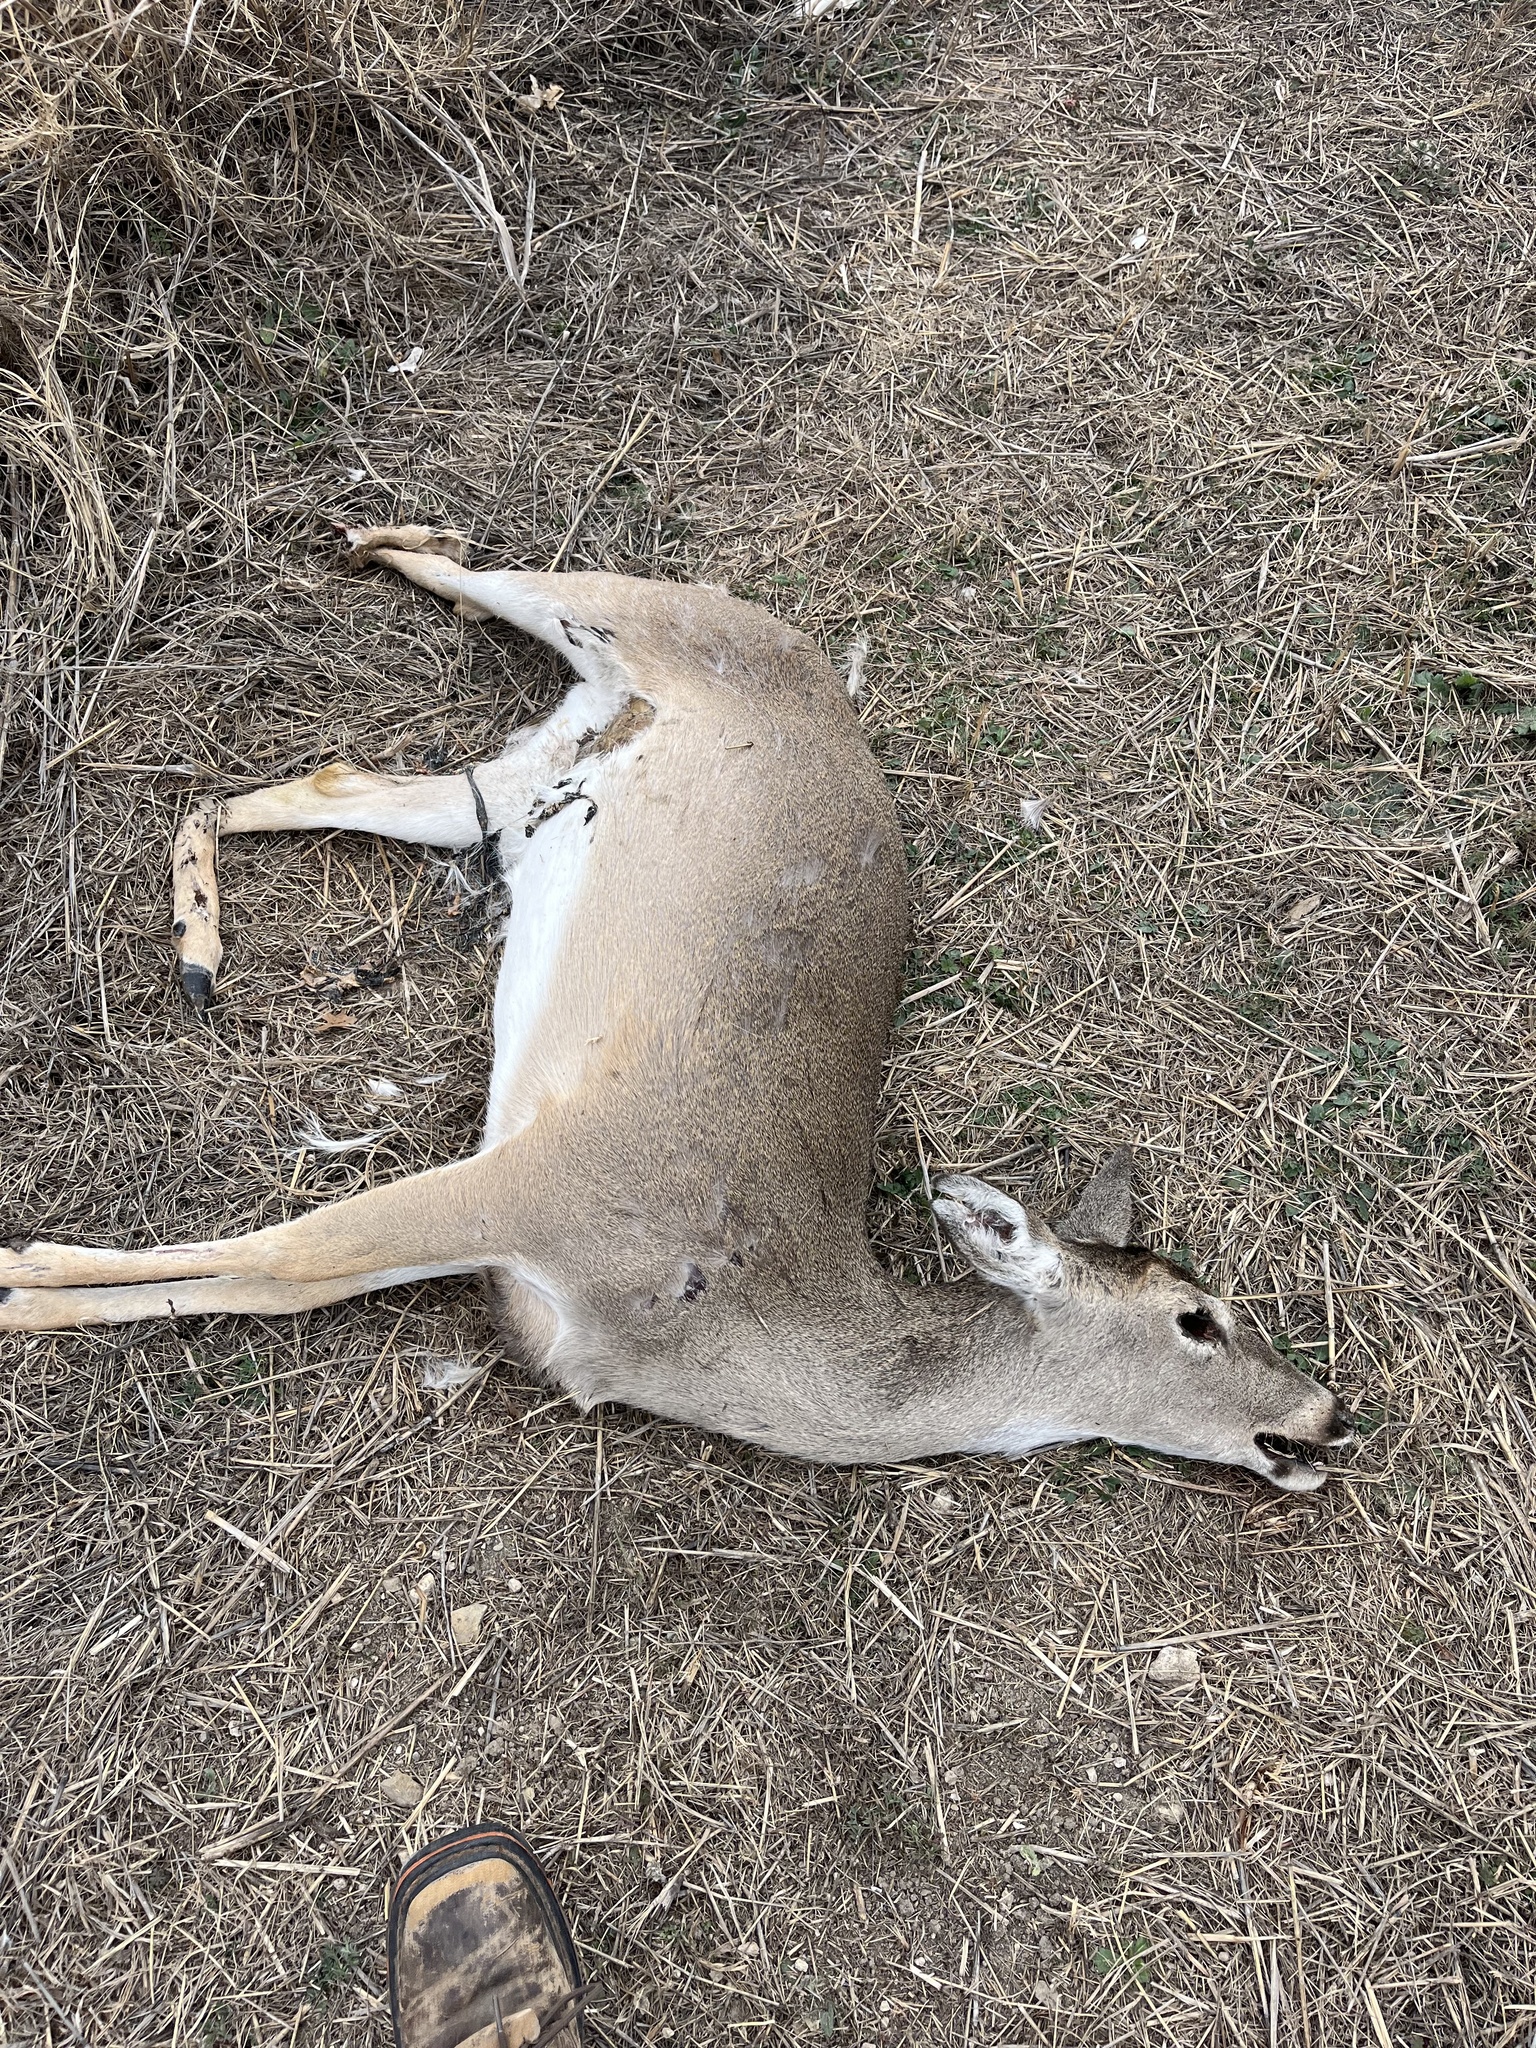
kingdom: Animalia
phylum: Chordata
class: Mammalia
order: Artiodactyla
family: Cervidae
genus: Odocoileus
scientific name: Odocoileus virginianus
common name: White-tailed deer
